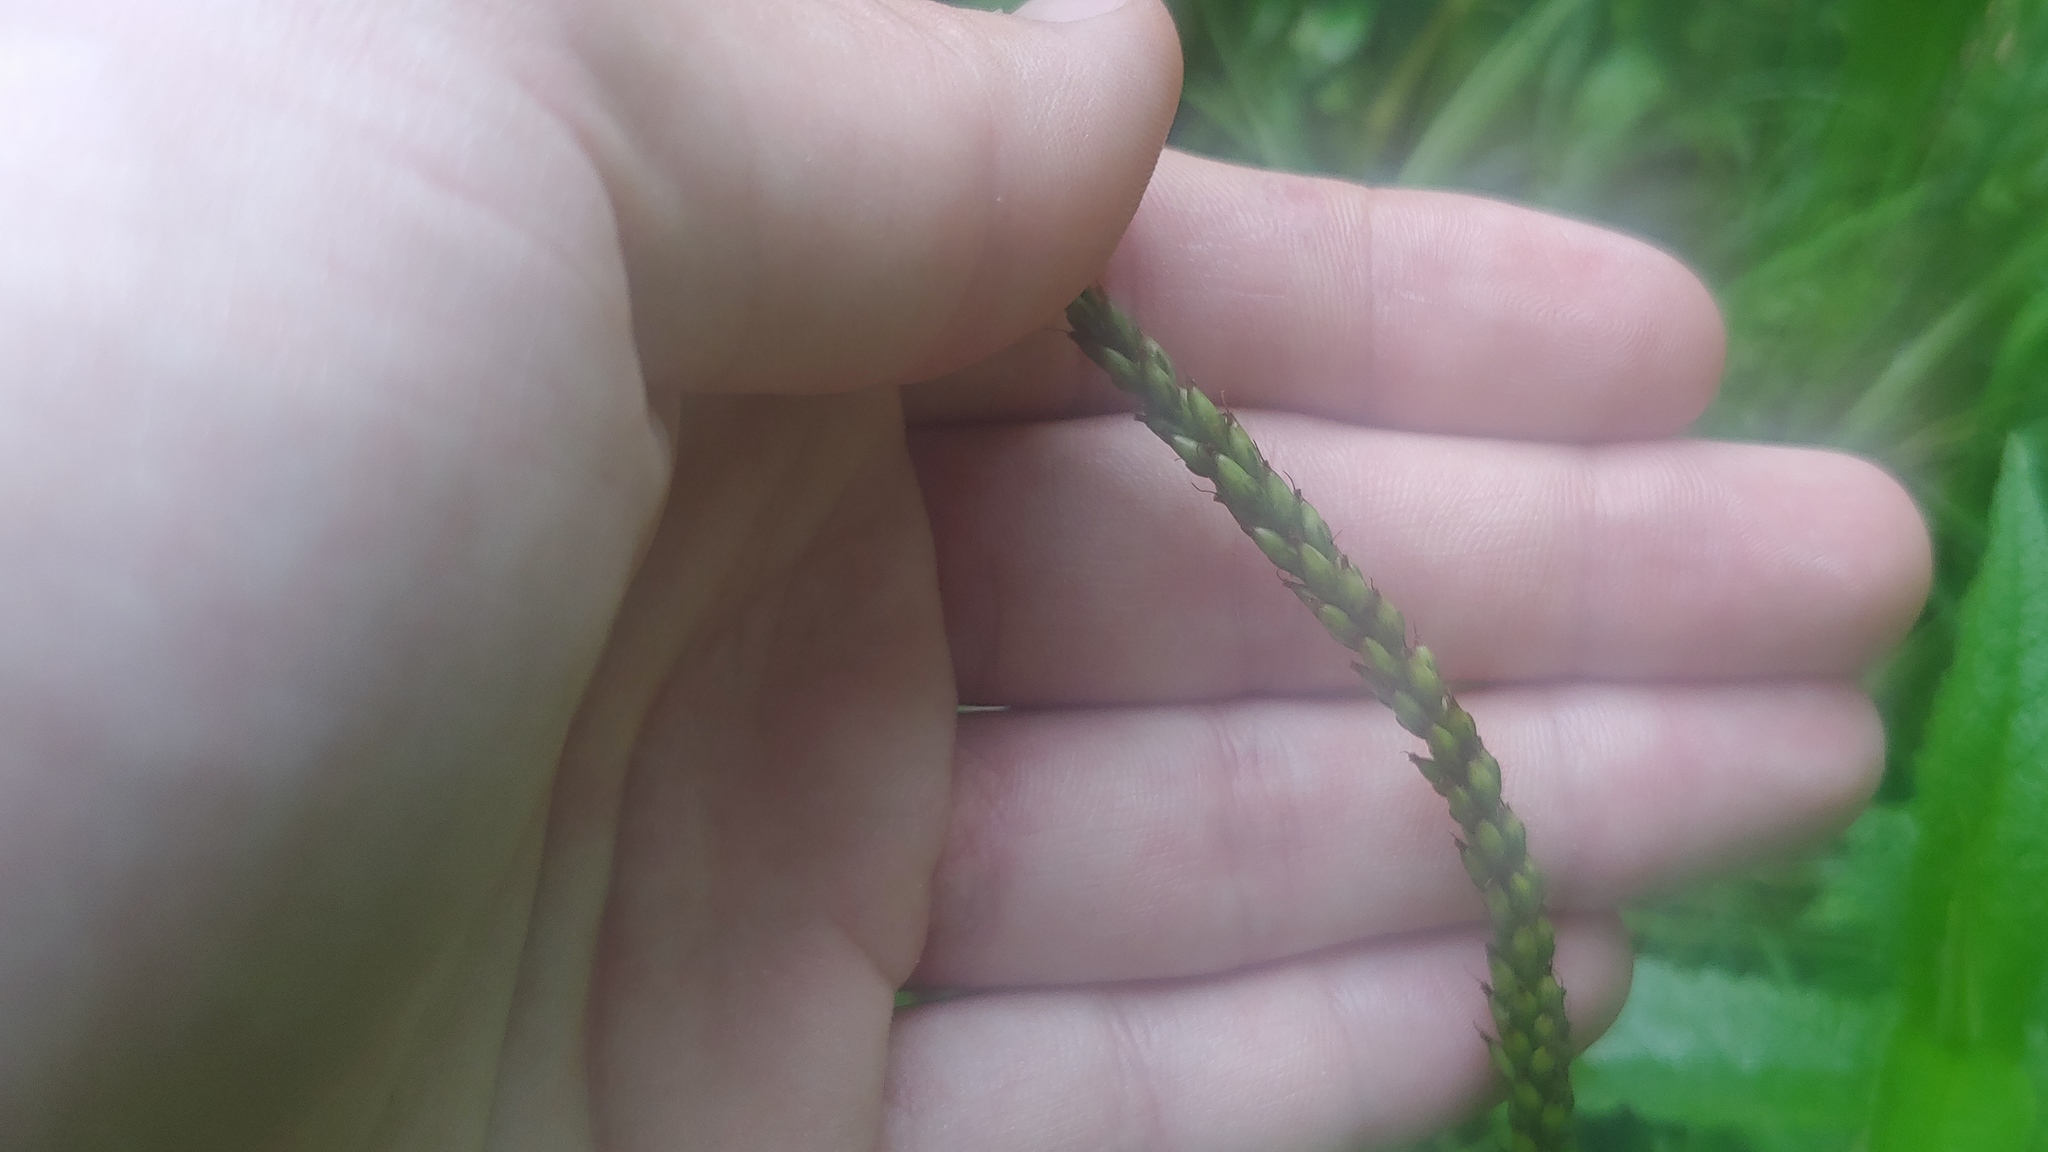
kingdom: Plantae
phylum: Tracheophyta
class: Magnoliopsida
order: Lamiales
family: Plantaginaceae
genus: Plantago
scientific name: Plantago rugelii
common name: American plantain
